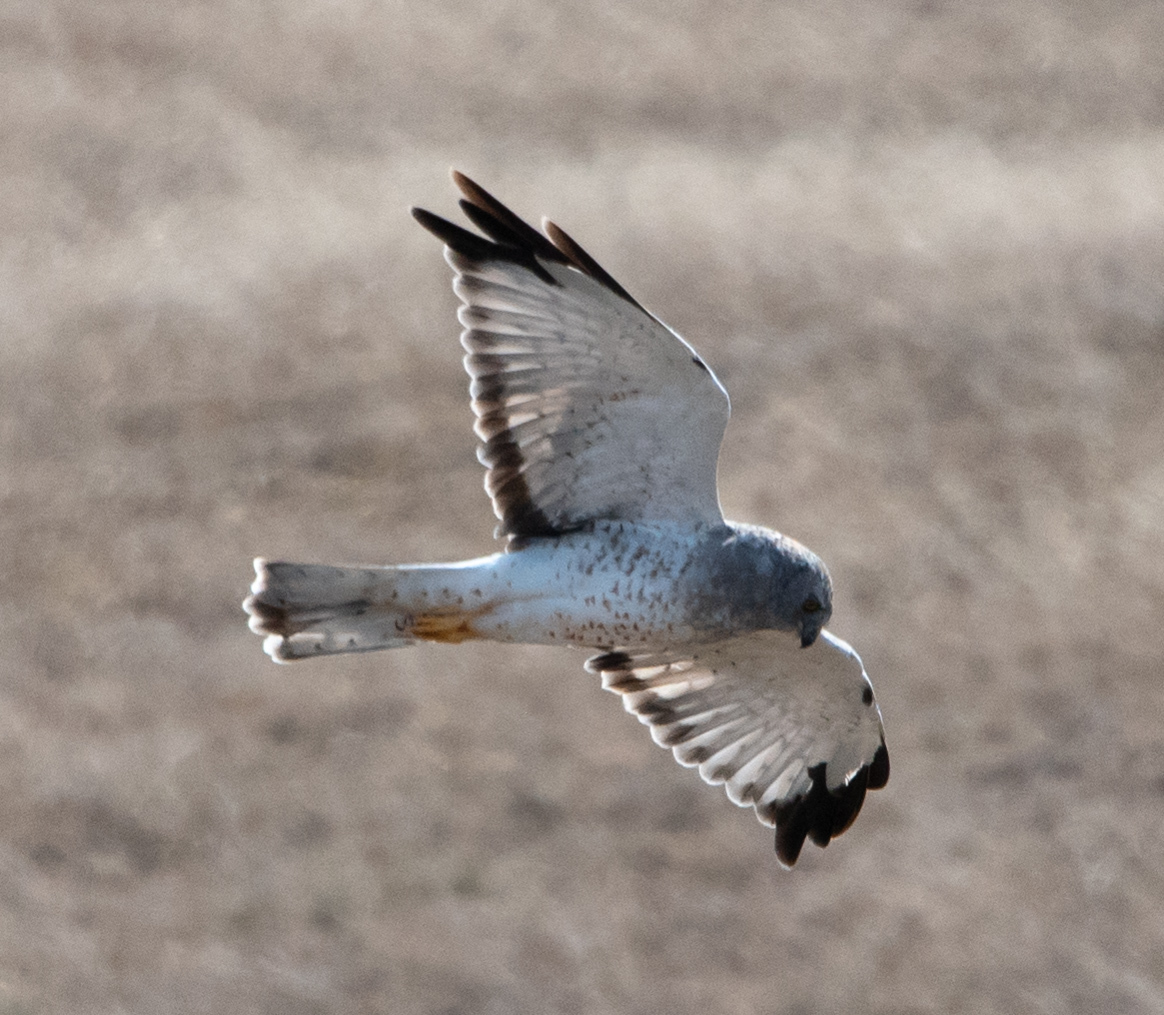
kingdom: Animalia
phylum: Chordata
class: Aves
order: Accipitriformes
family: Accipitridae
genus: Circus
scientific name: Circus cyaneus
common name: Hen harrier
